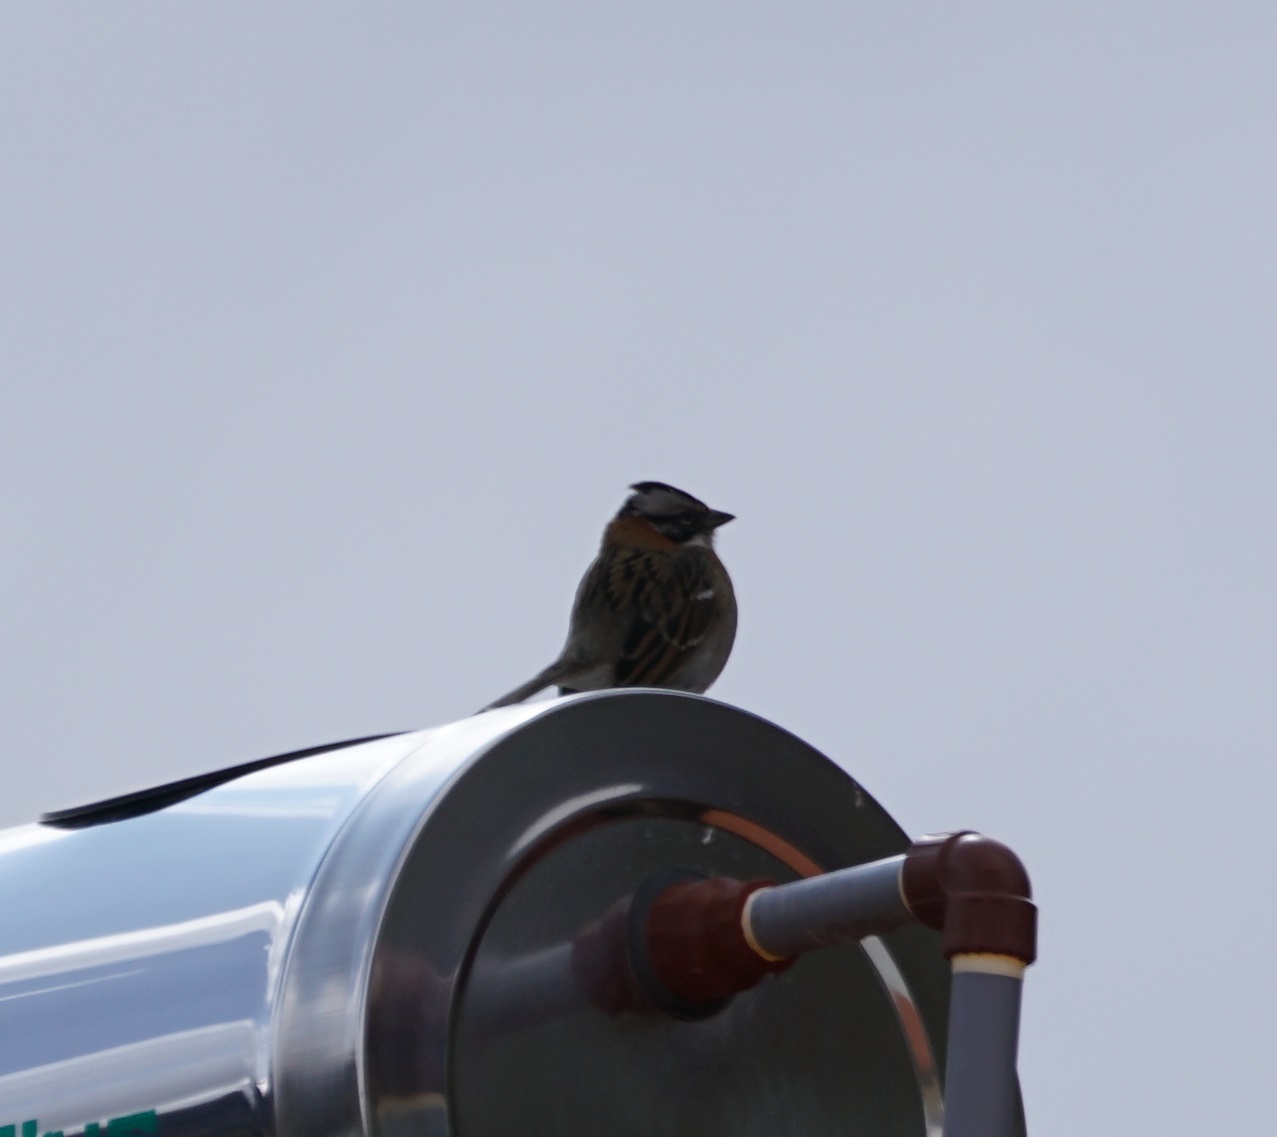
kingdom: Animalia
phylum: Chordata
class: Aves
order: Passeriformes
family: Passerellidae
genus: Zonotrichia
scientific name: Zonotrichia capensis
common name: Rufous-collared sparrow
